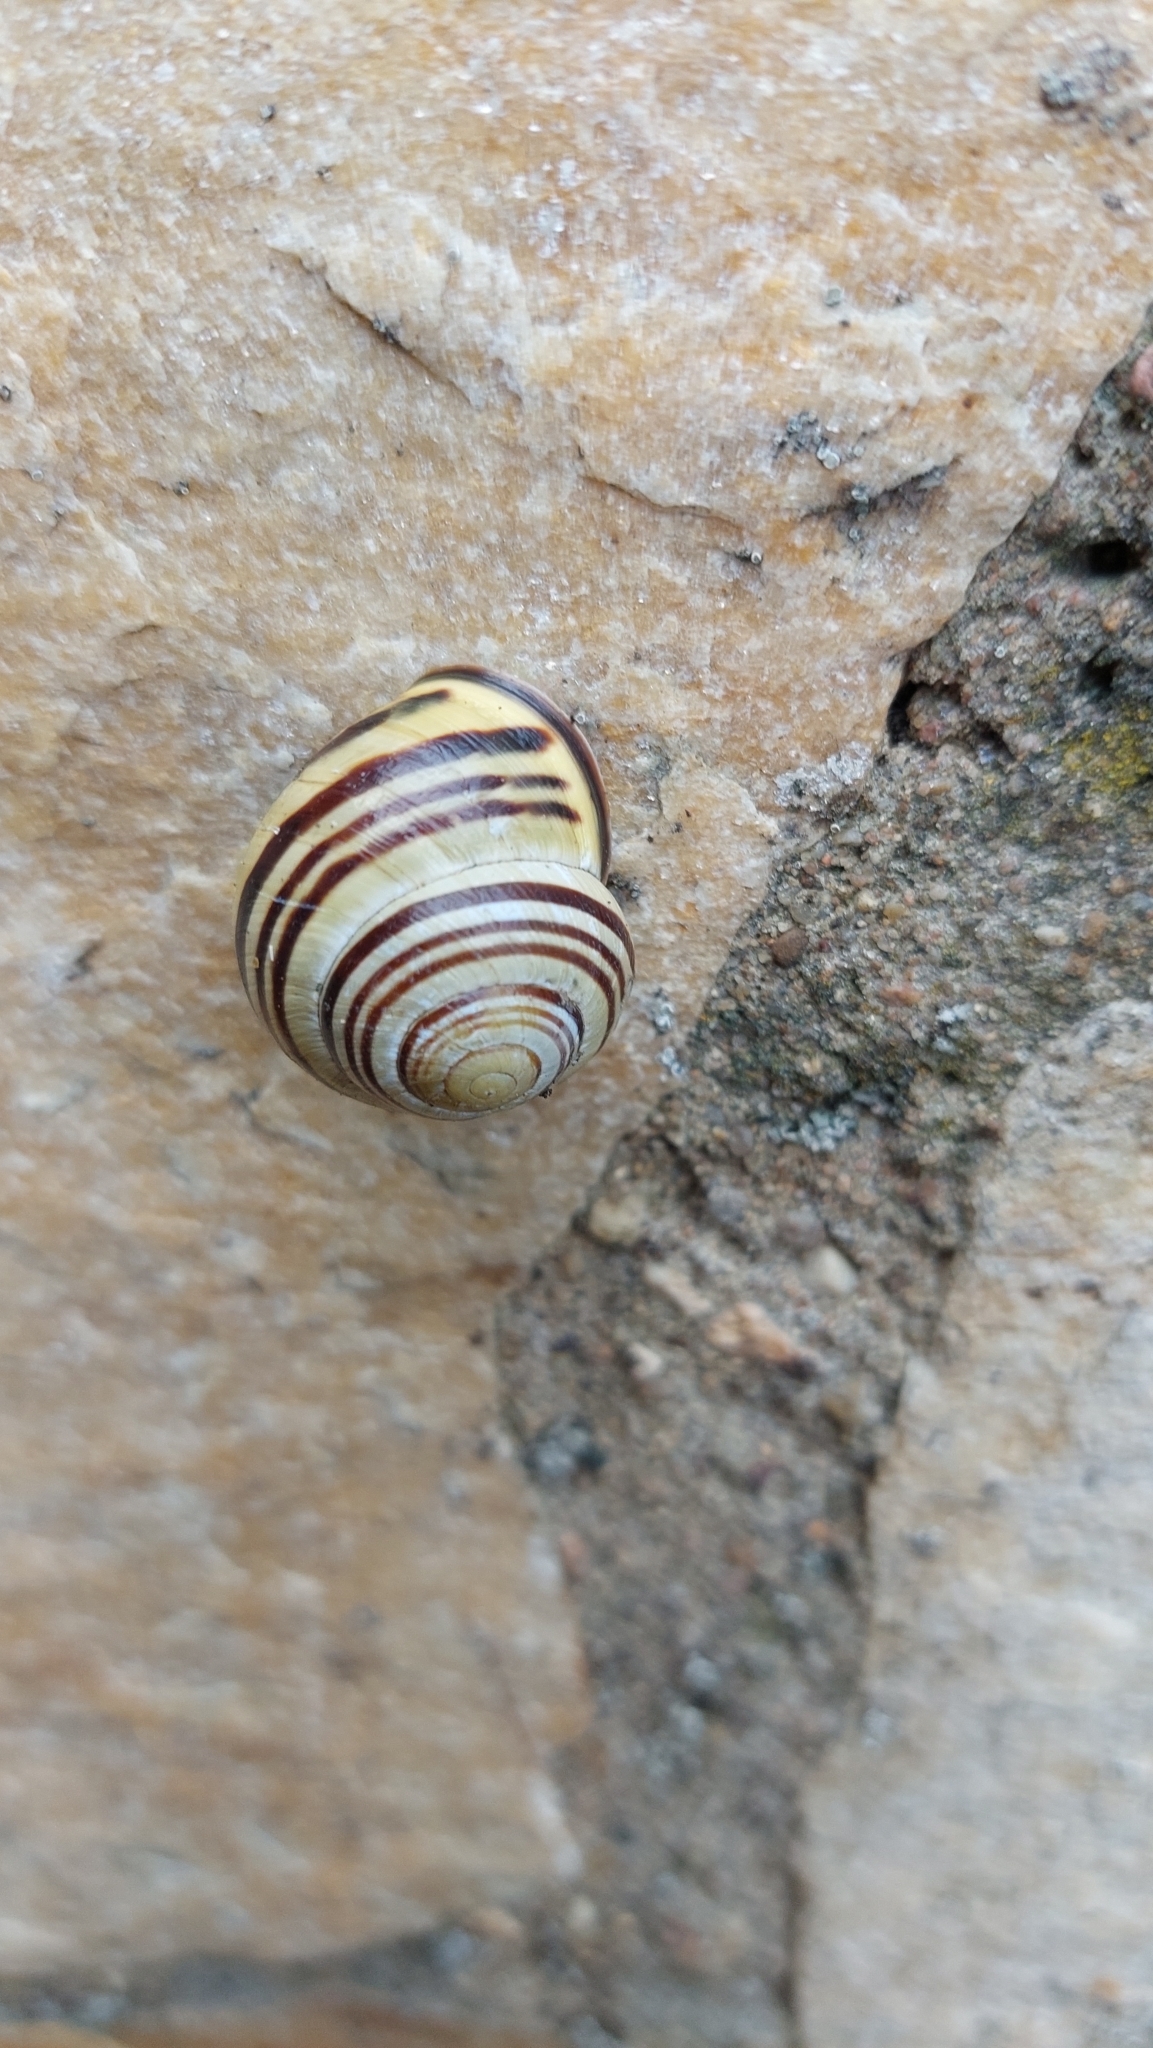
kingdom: Animalia
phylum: Mollusca
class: Gastropoda
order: Stylommatophora
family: Helicidae
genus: Cepaea
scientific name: Cepaea nemoralis
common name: Grovesnail
